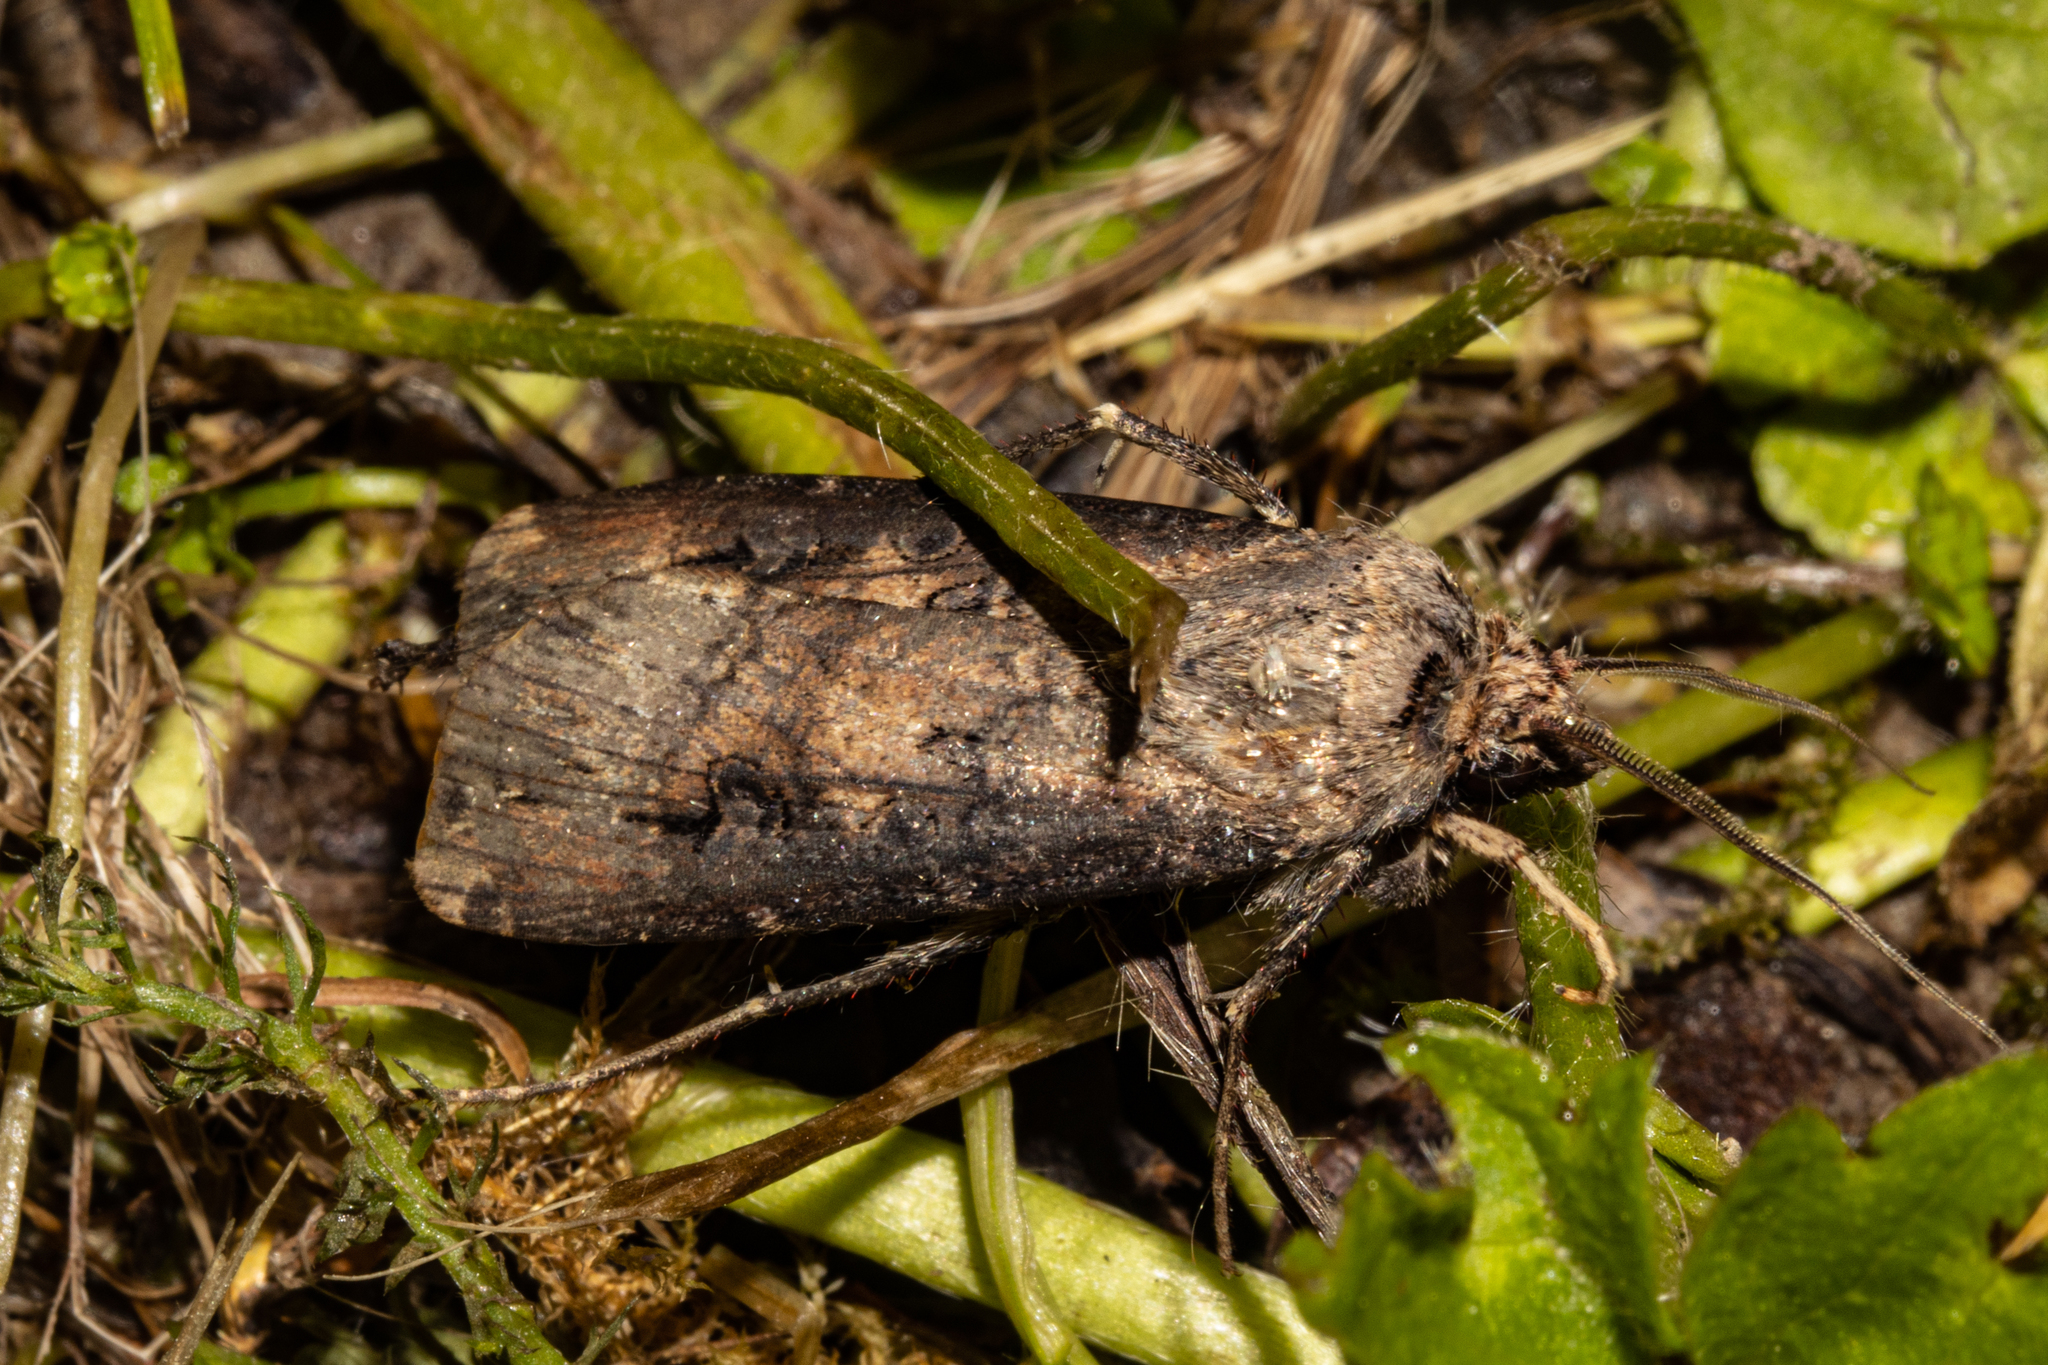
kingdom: Animalia
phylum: Arthropoda
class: Insecta
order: Lepidoptera
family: Noctuidae
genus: Agrotis
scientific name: Agrotis ipsilon
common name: Dark sword-grass
